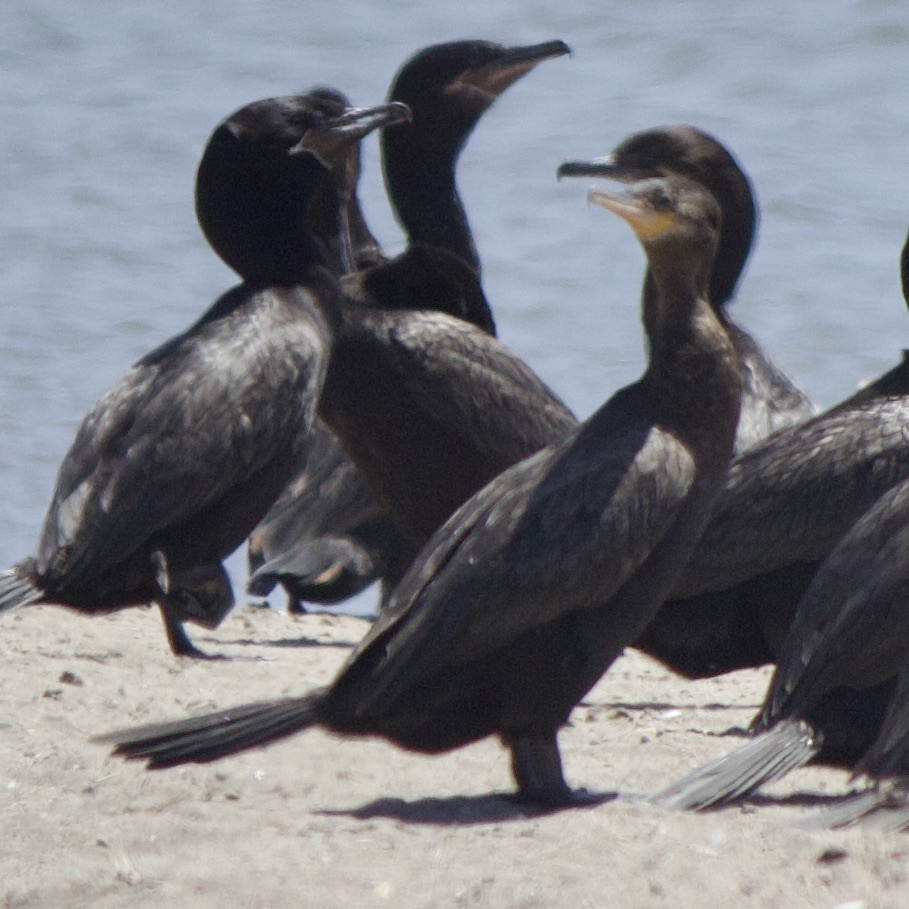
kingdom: Animalia
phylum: Chordata
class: Aves
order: Suliformes
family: Phalacrocoracidae
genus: Phalacrocorax
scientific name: Phalacrocorax brasilianus
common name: Neotropic cormorant
